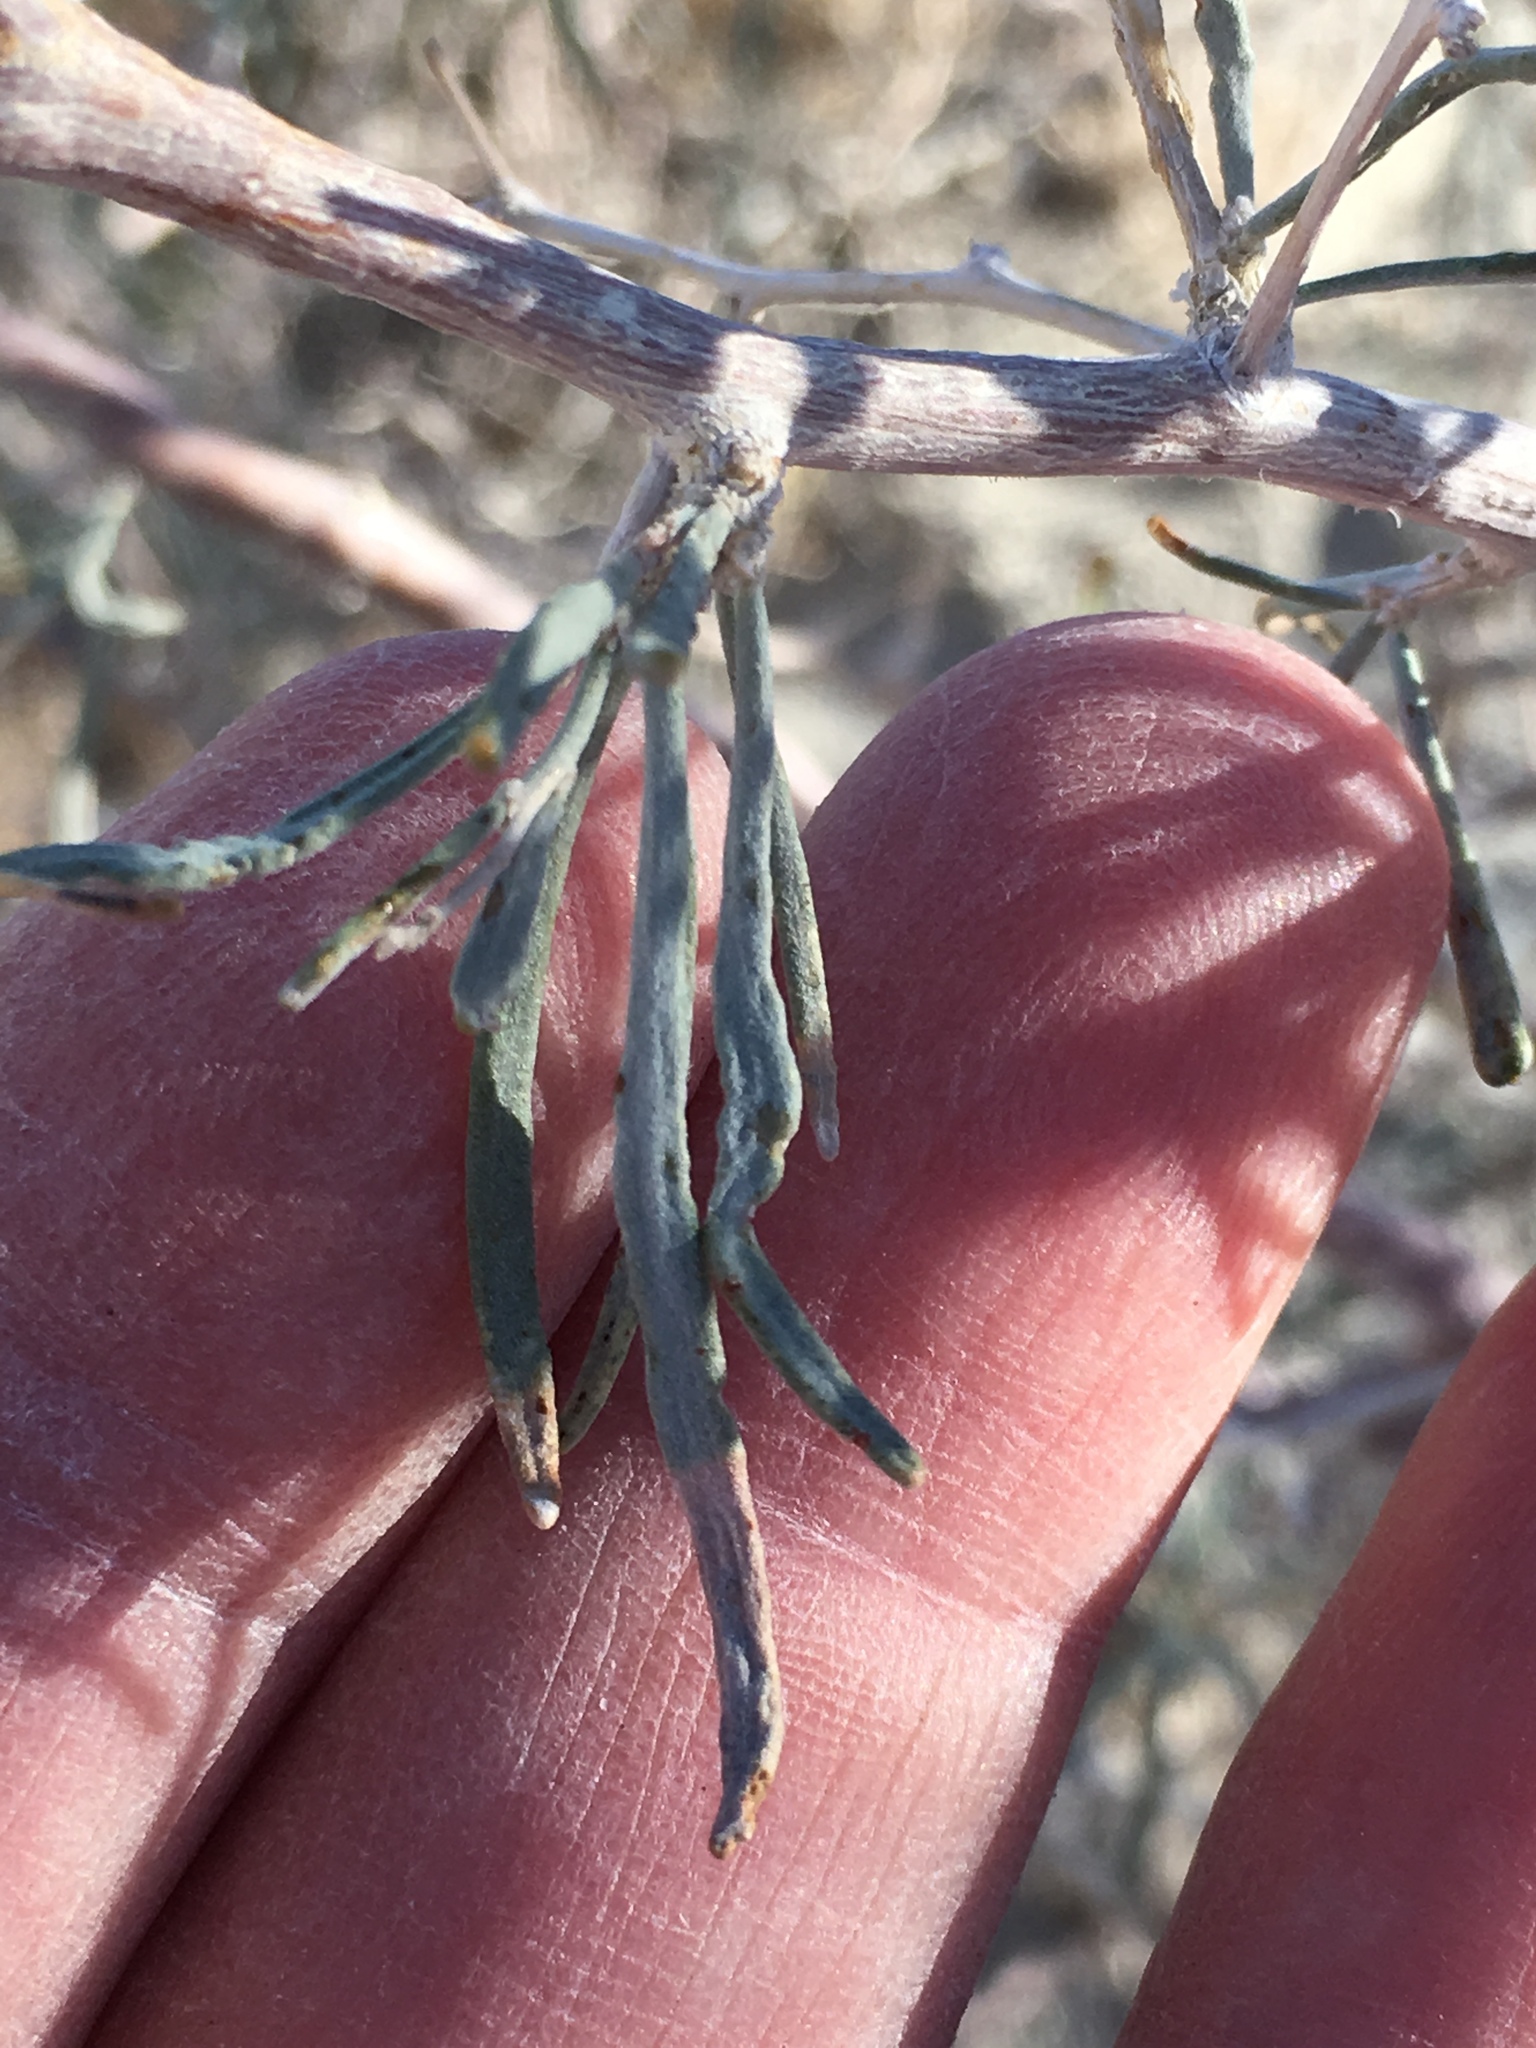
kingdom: Plantae
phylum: Tracheophyta
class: Magnoliopsida
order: Fabales
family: Fabaceae
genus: Psorothamnus
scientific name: Psorothamnus schottii
